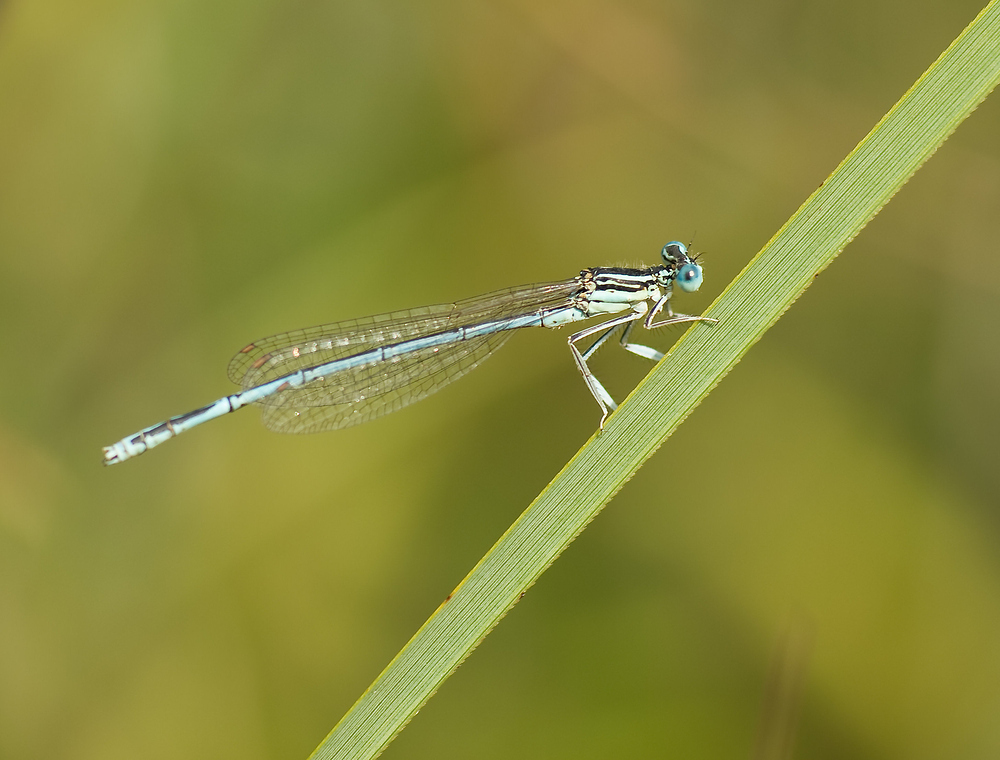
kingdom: Animalia
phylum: Arthropoda
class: Insecta
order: Odonata
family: Platycnemididae
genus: Platycnemis
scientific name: Platycnemis pennipes
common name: White-legged damselfly
